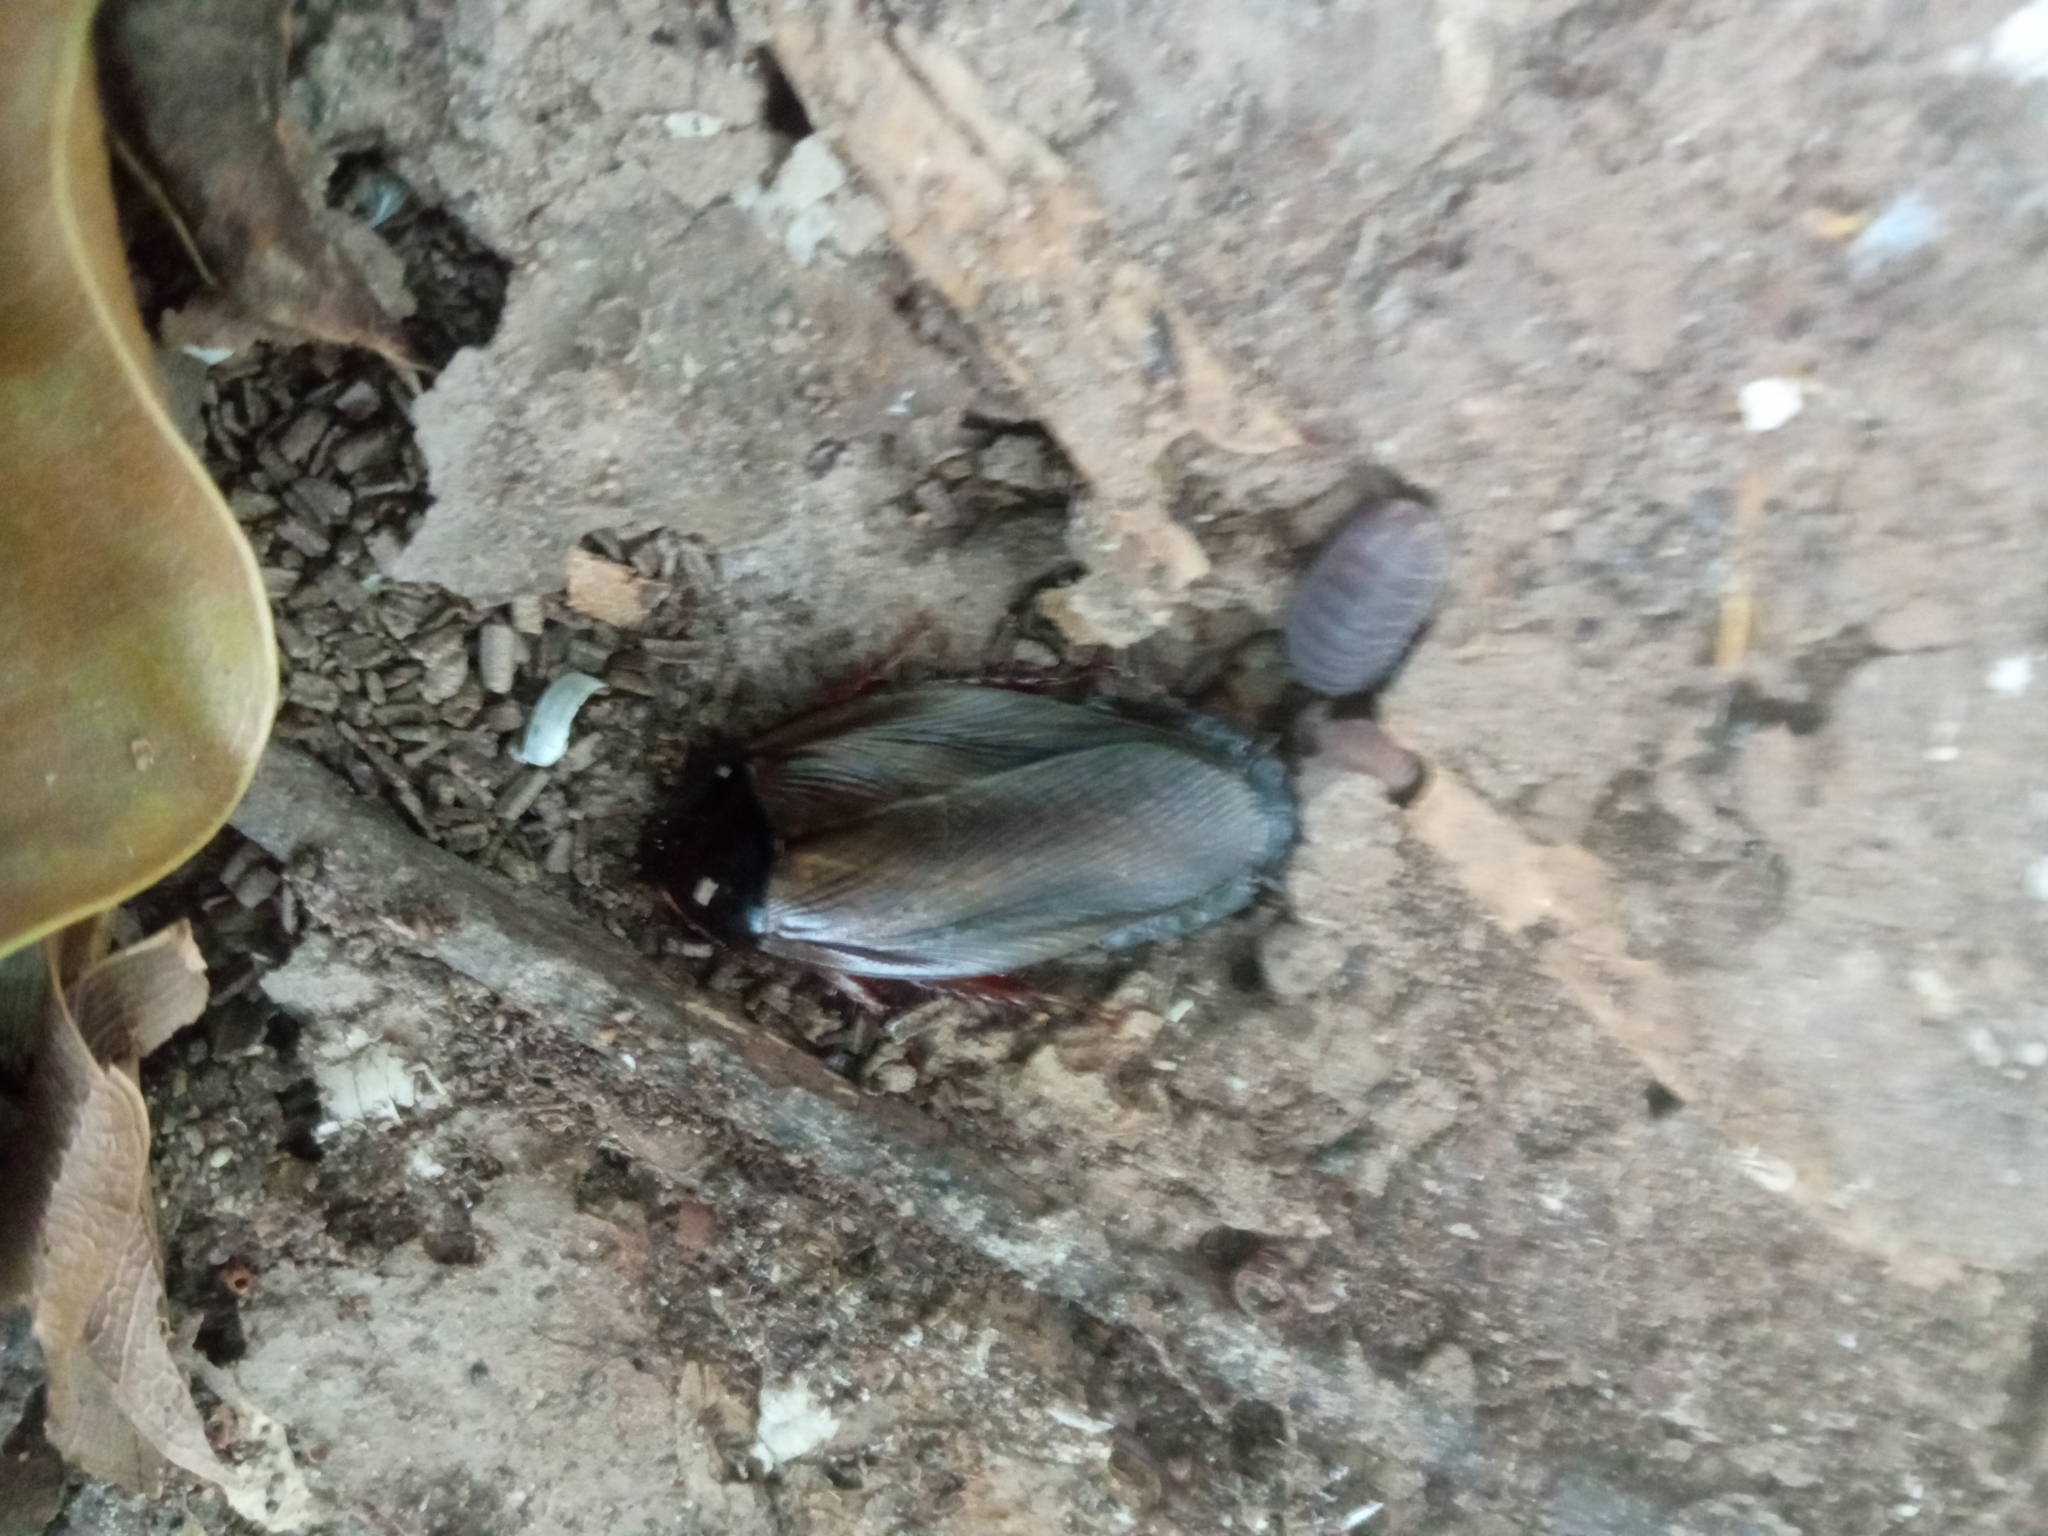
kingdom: Animalia
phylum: Arthropoda
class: Insecta
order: Blattodea
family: Blaberidae
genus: Pycnoscelus
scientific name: Pycnoscelus surinamensis
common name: Surinam cockroach
